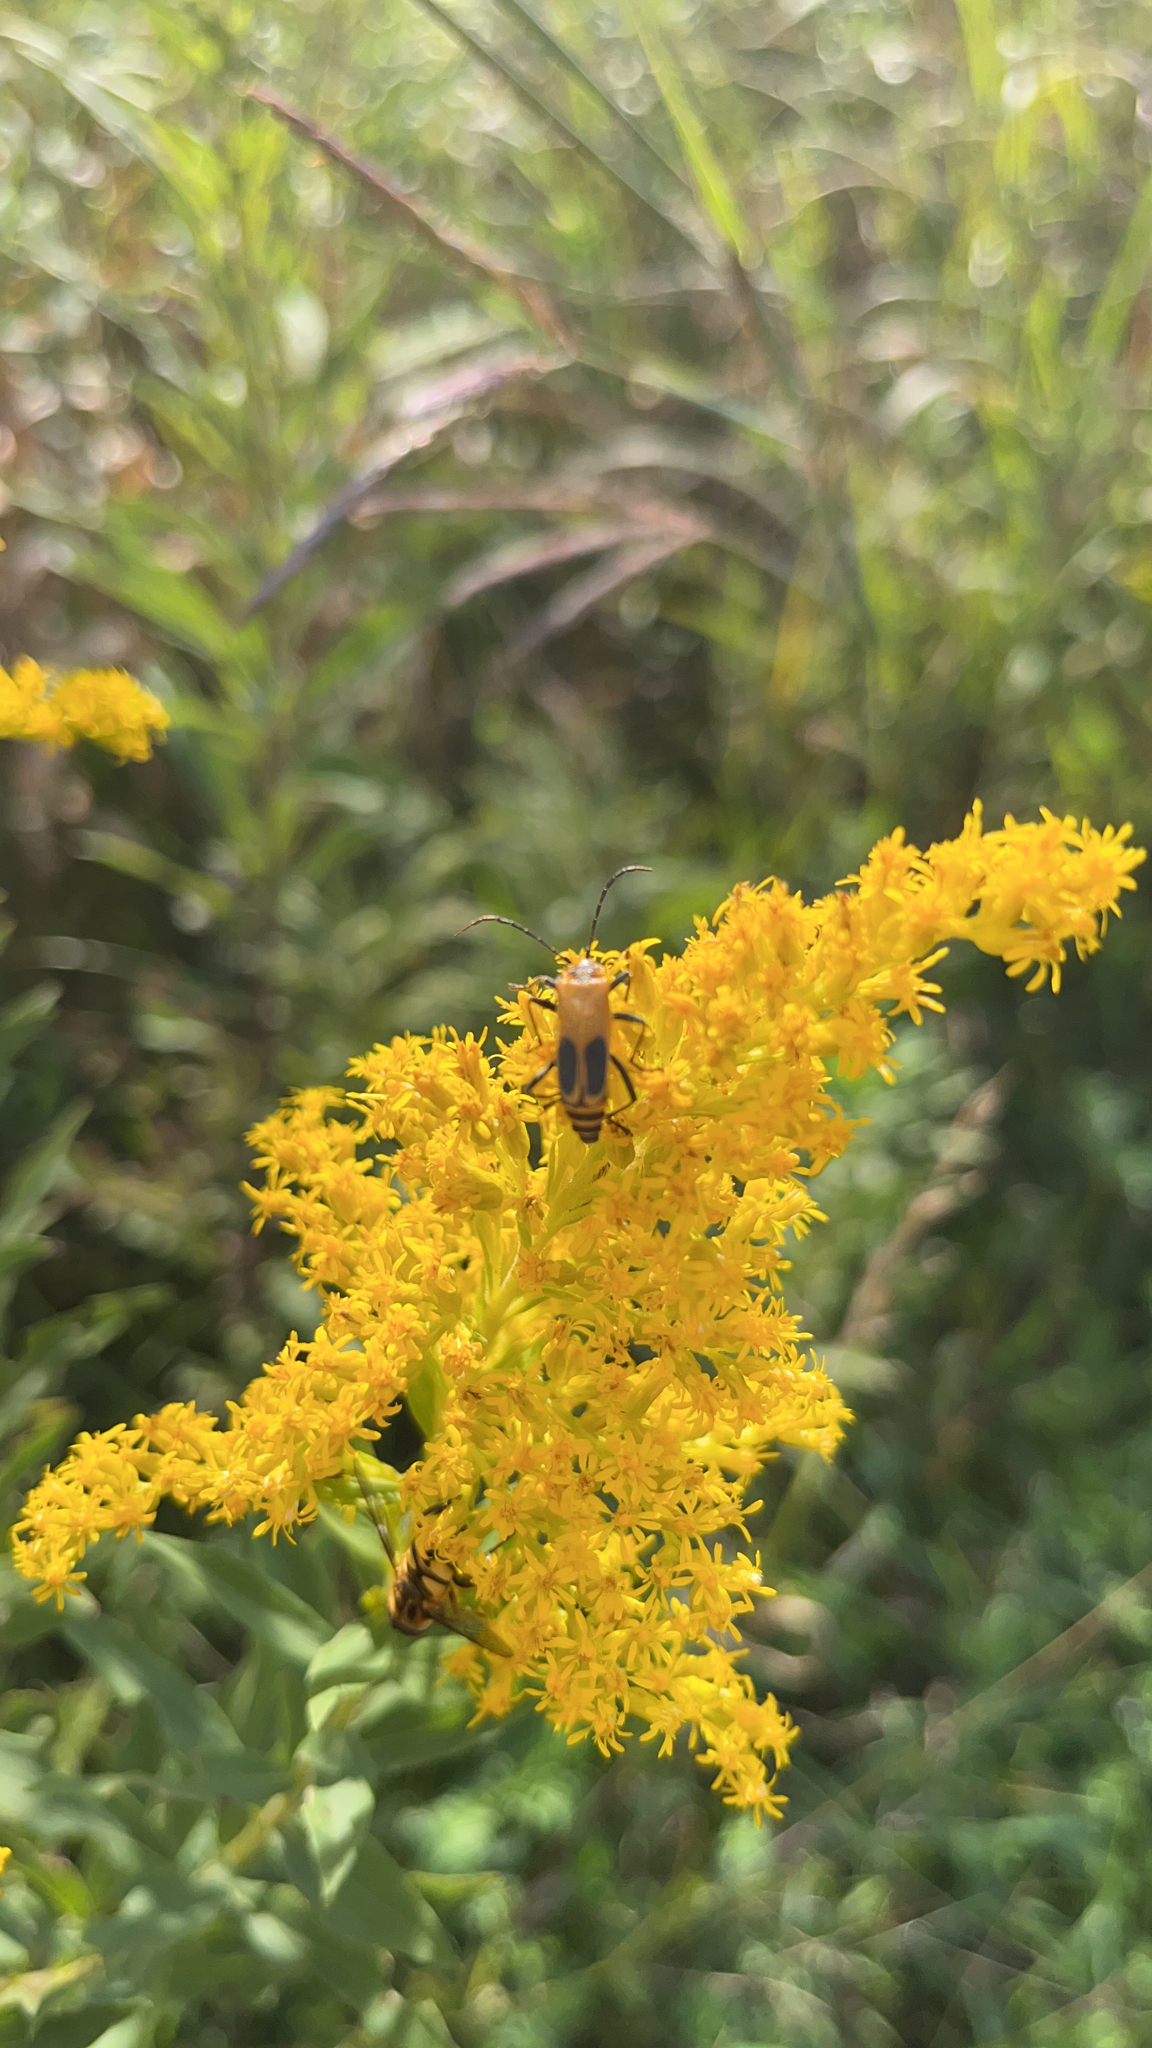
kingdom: Animalia
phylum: Arthropoda
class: Insecta
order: Coleoptera
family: Cantharidae
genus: Chauliognathus
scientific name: Chauliognathus pensylvanicus
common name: Goldenrod soldier beetle
